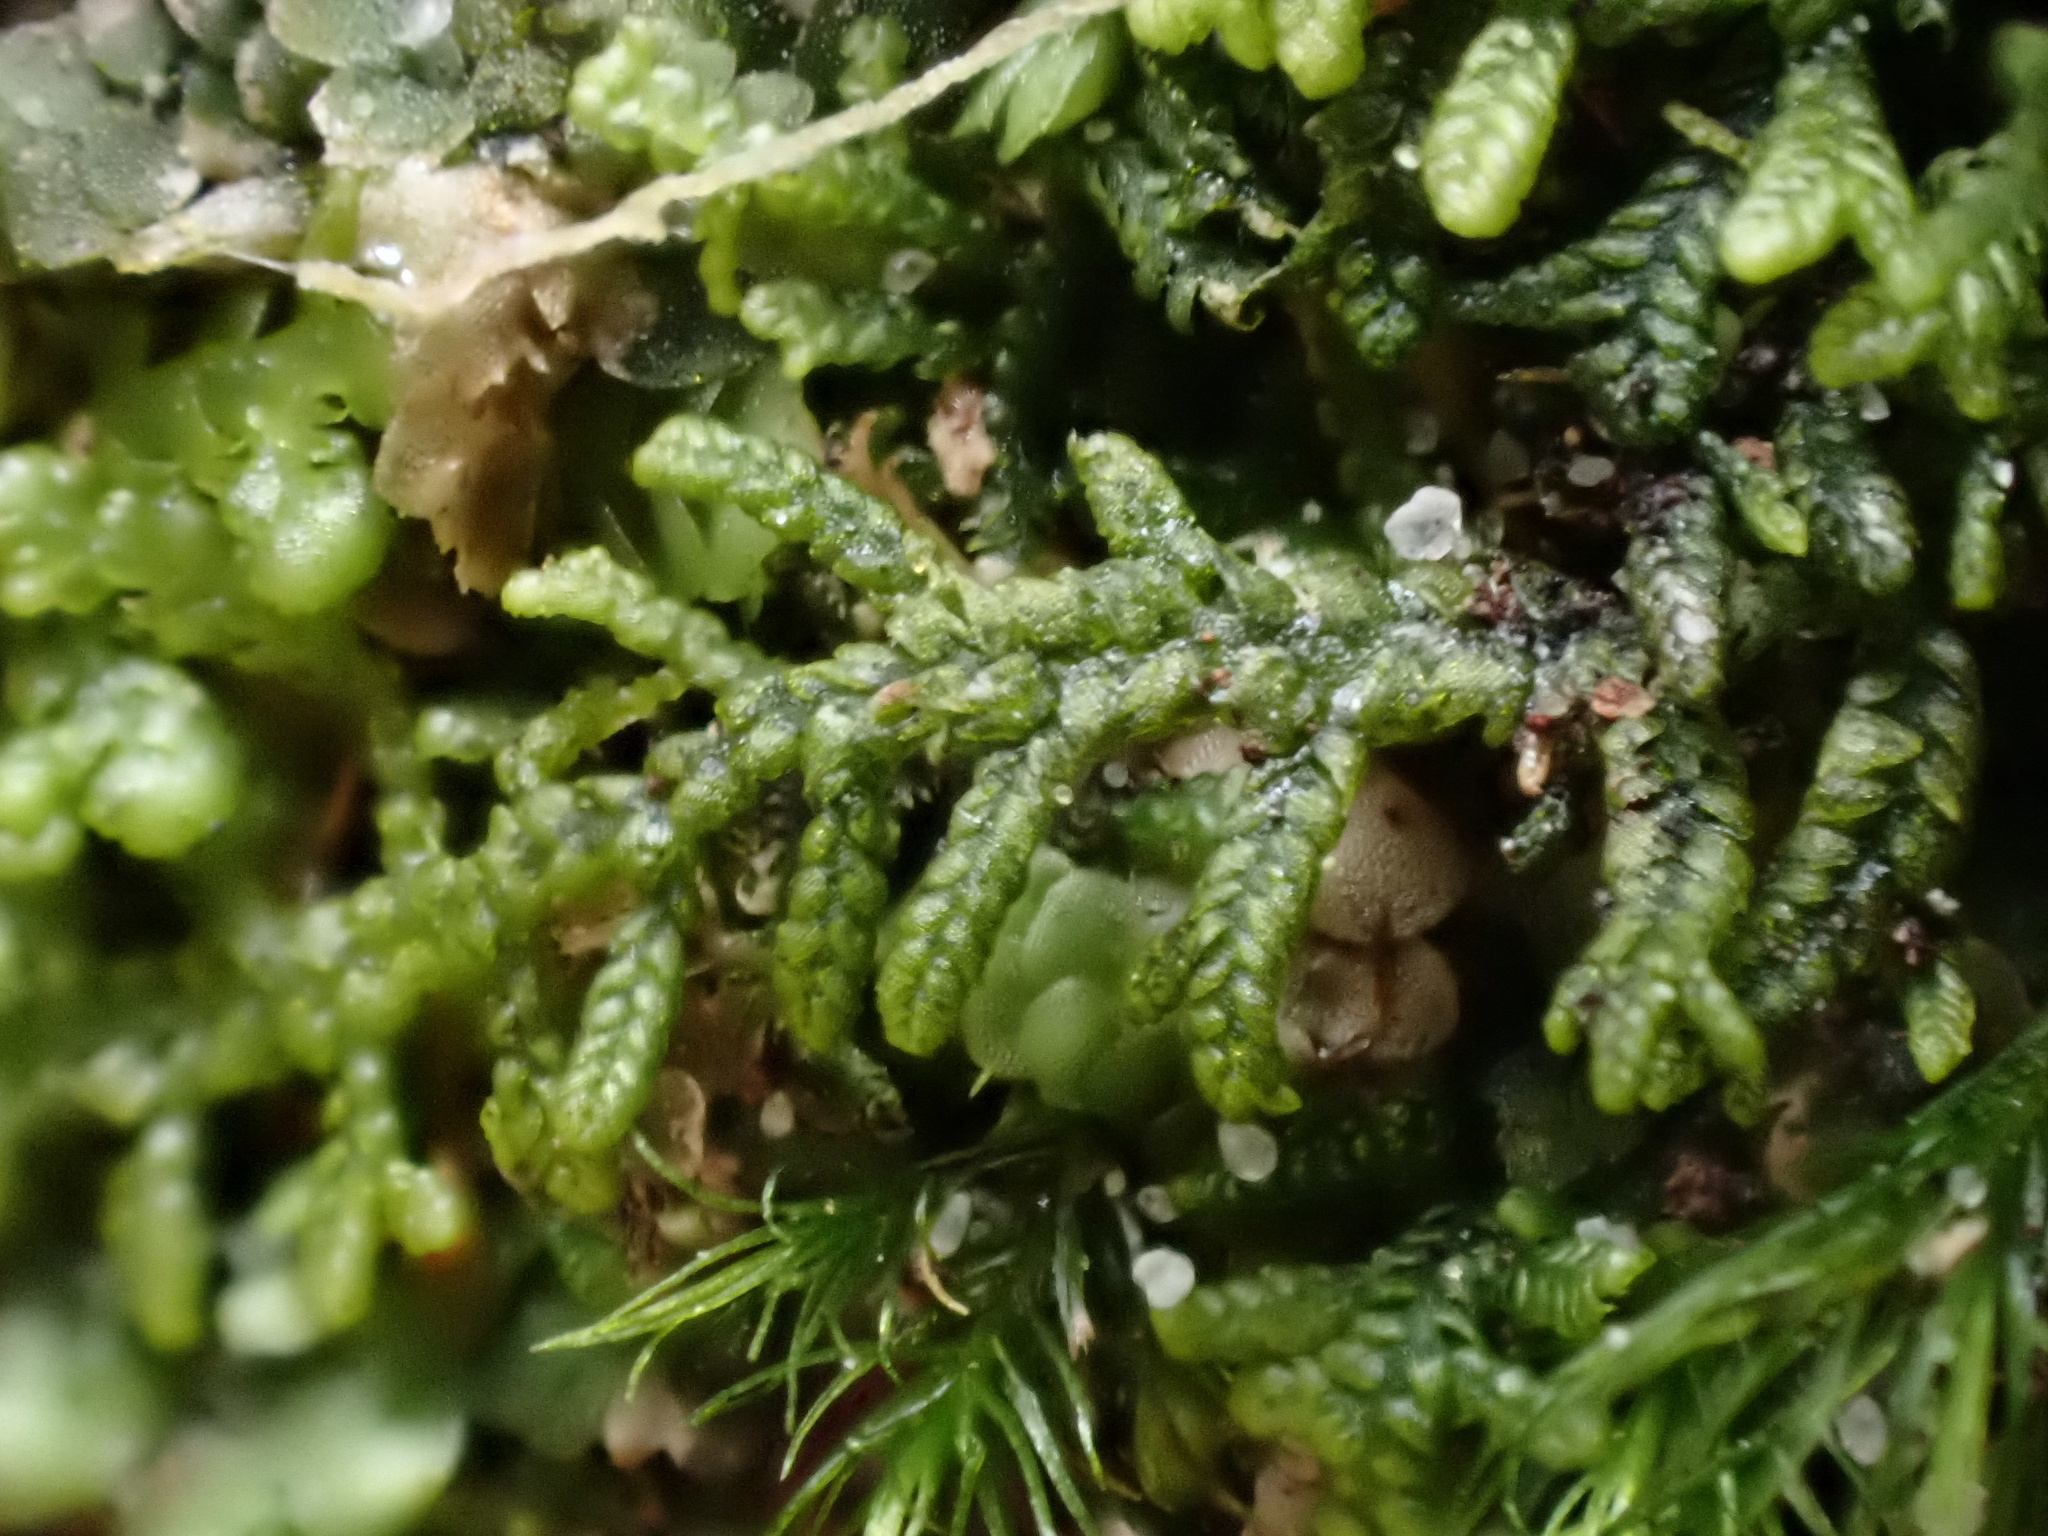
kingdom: Plantae
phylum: Marchantiophyta
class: Jungermanniopsida
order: Jungermanniales
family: Lepidoziaceae
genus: Lepidozia
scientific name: Lepidozia reptans
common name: Creeping fingerwort
